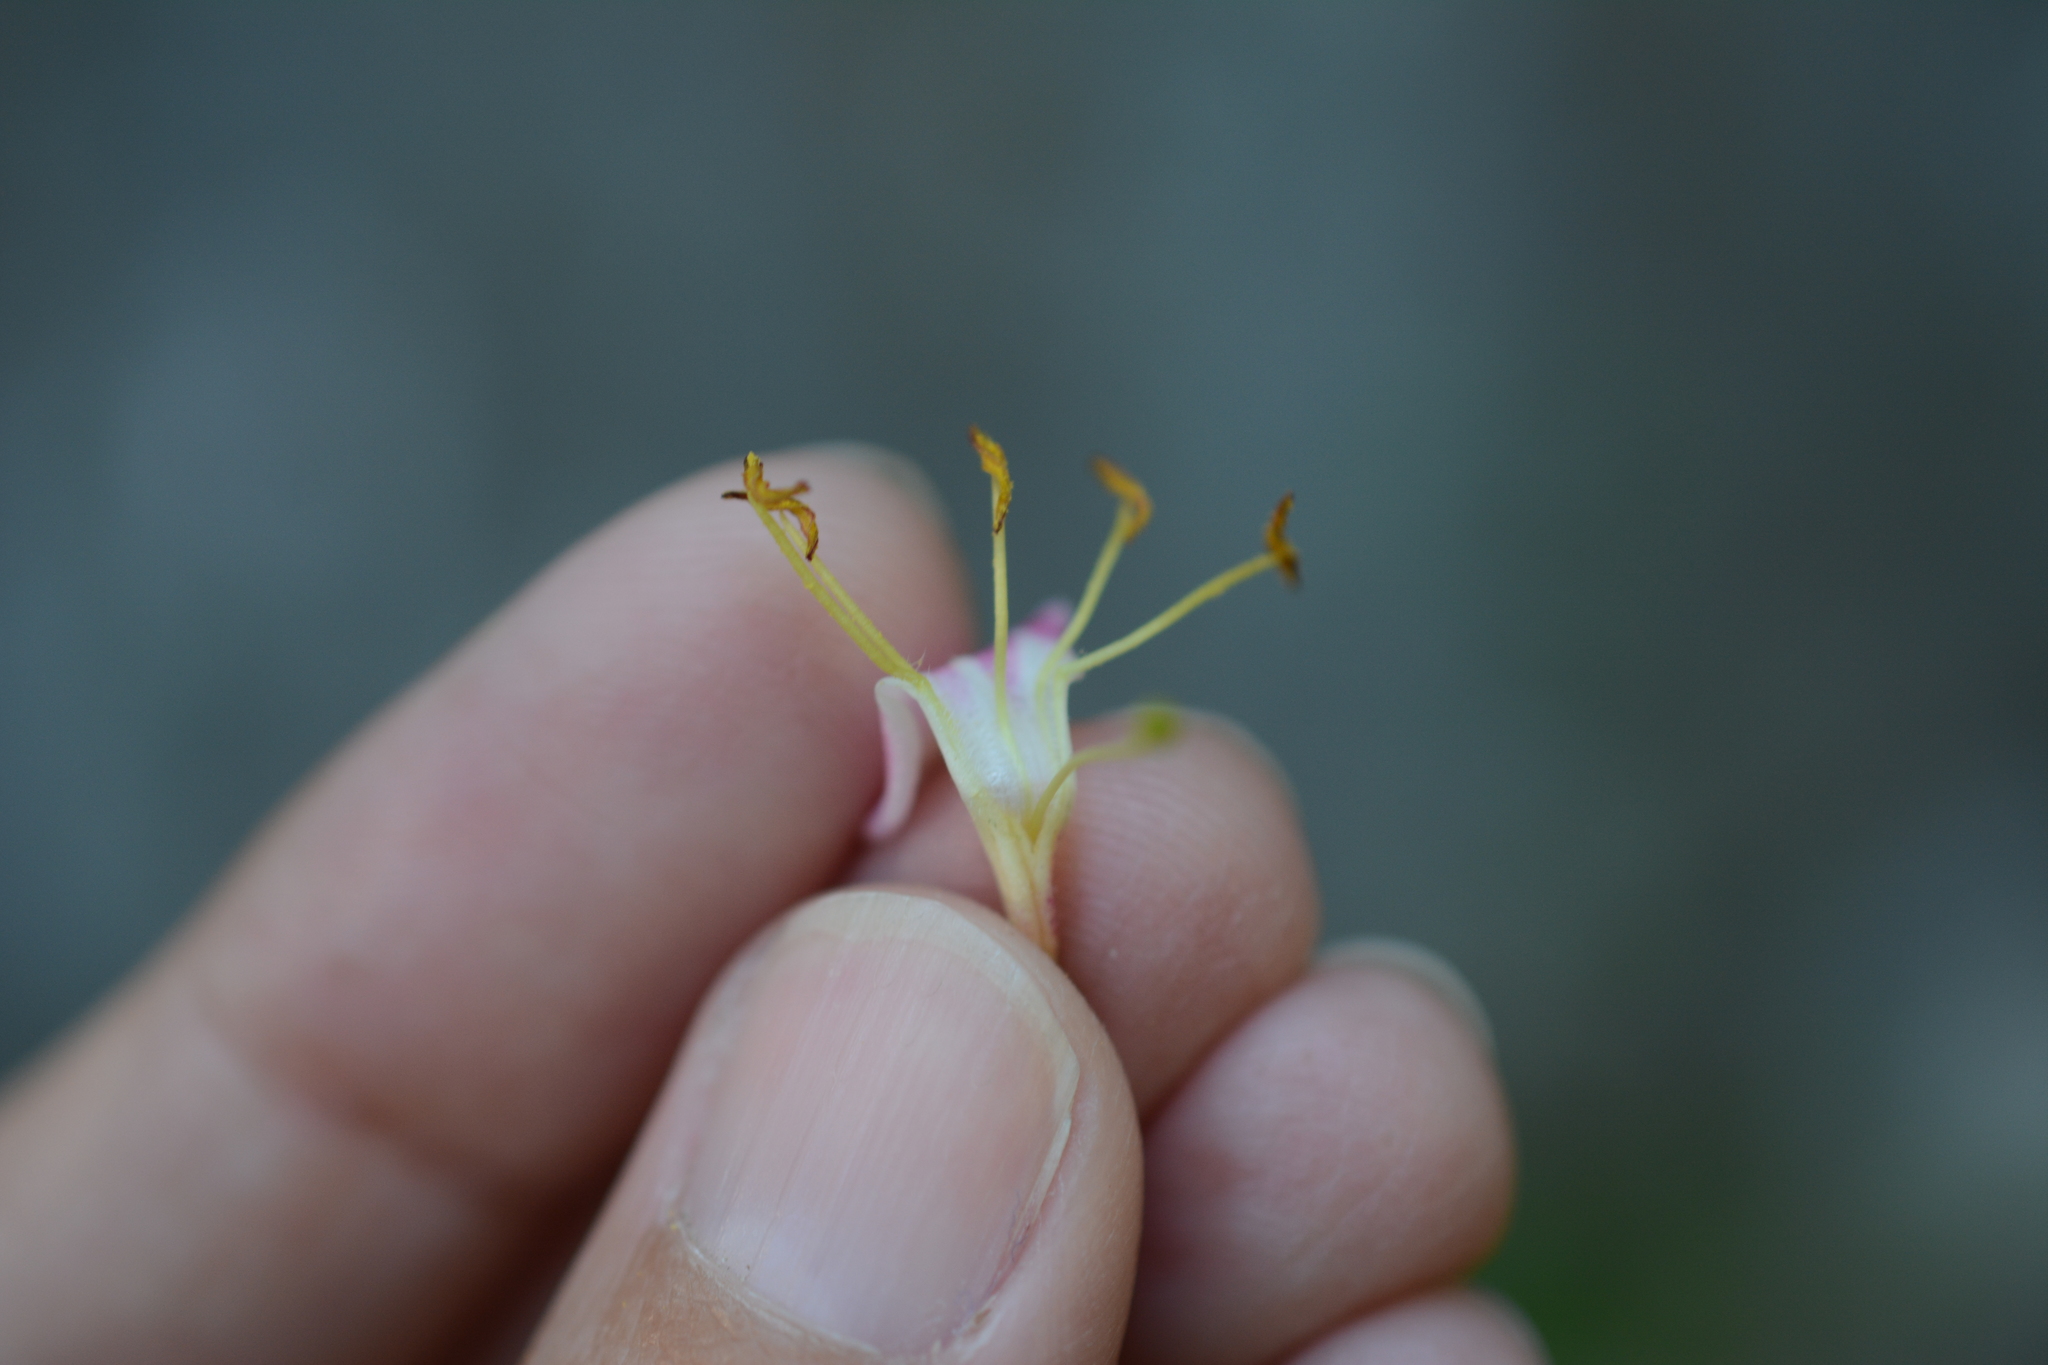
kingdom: Plantae
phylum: Tracheophyta
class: Magnoliopsida
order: Dipsacales
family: Caprifoliaceae
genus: Lonicera
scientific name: Lonicera hispidula
